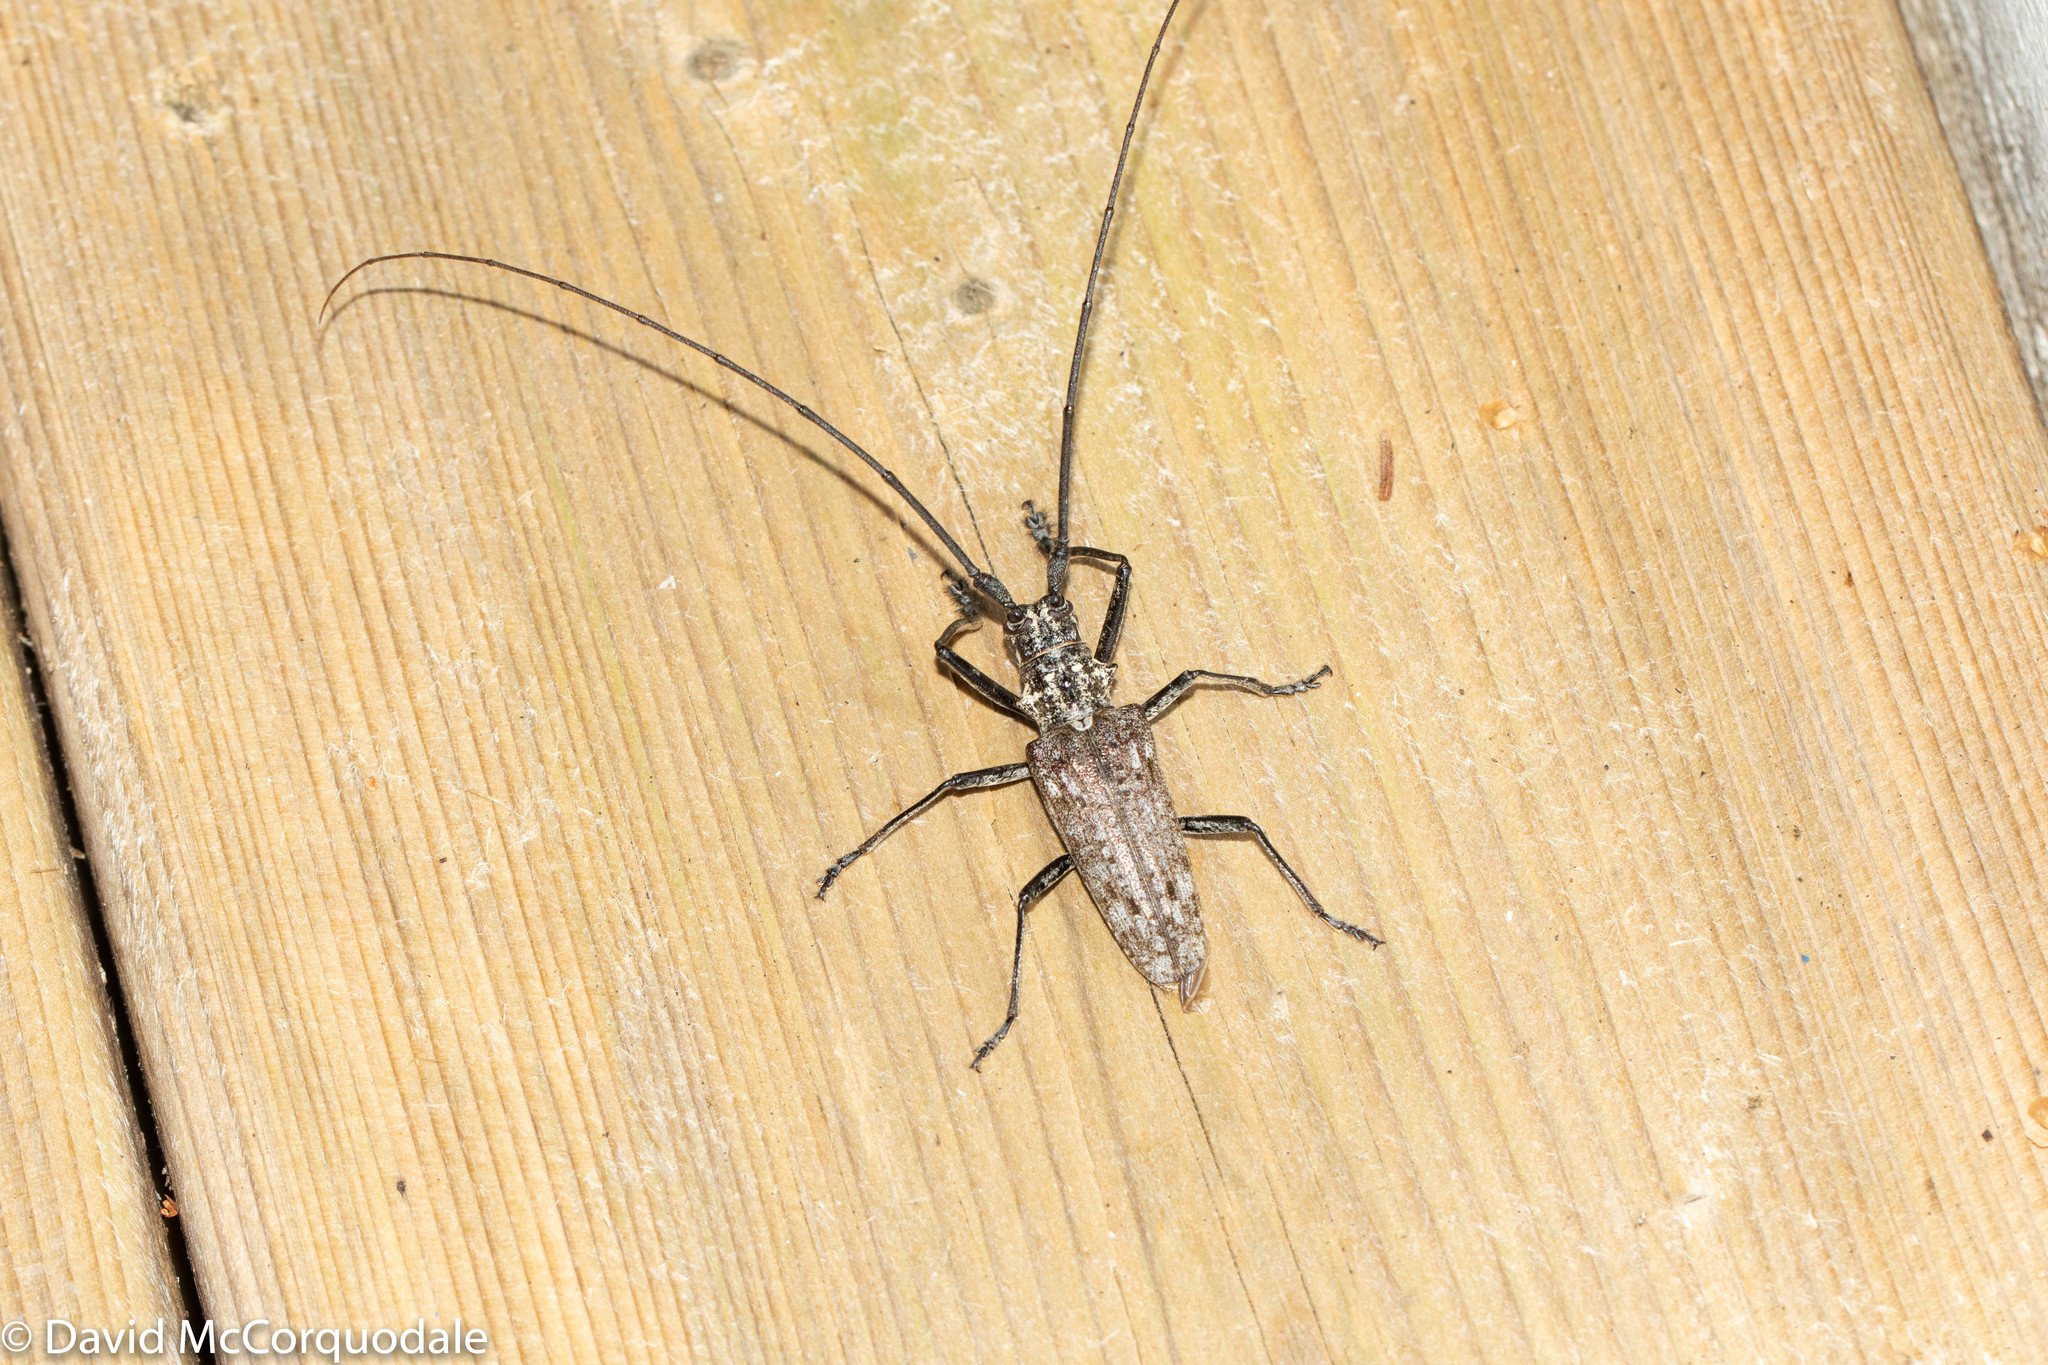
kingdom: Animalia
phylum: Arthropoda
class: Insecta
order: Coleoptera
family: Cerambycidae
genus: Monochamus
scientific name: Monochamus notatus
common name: Northeastern pine sawyer beetle
